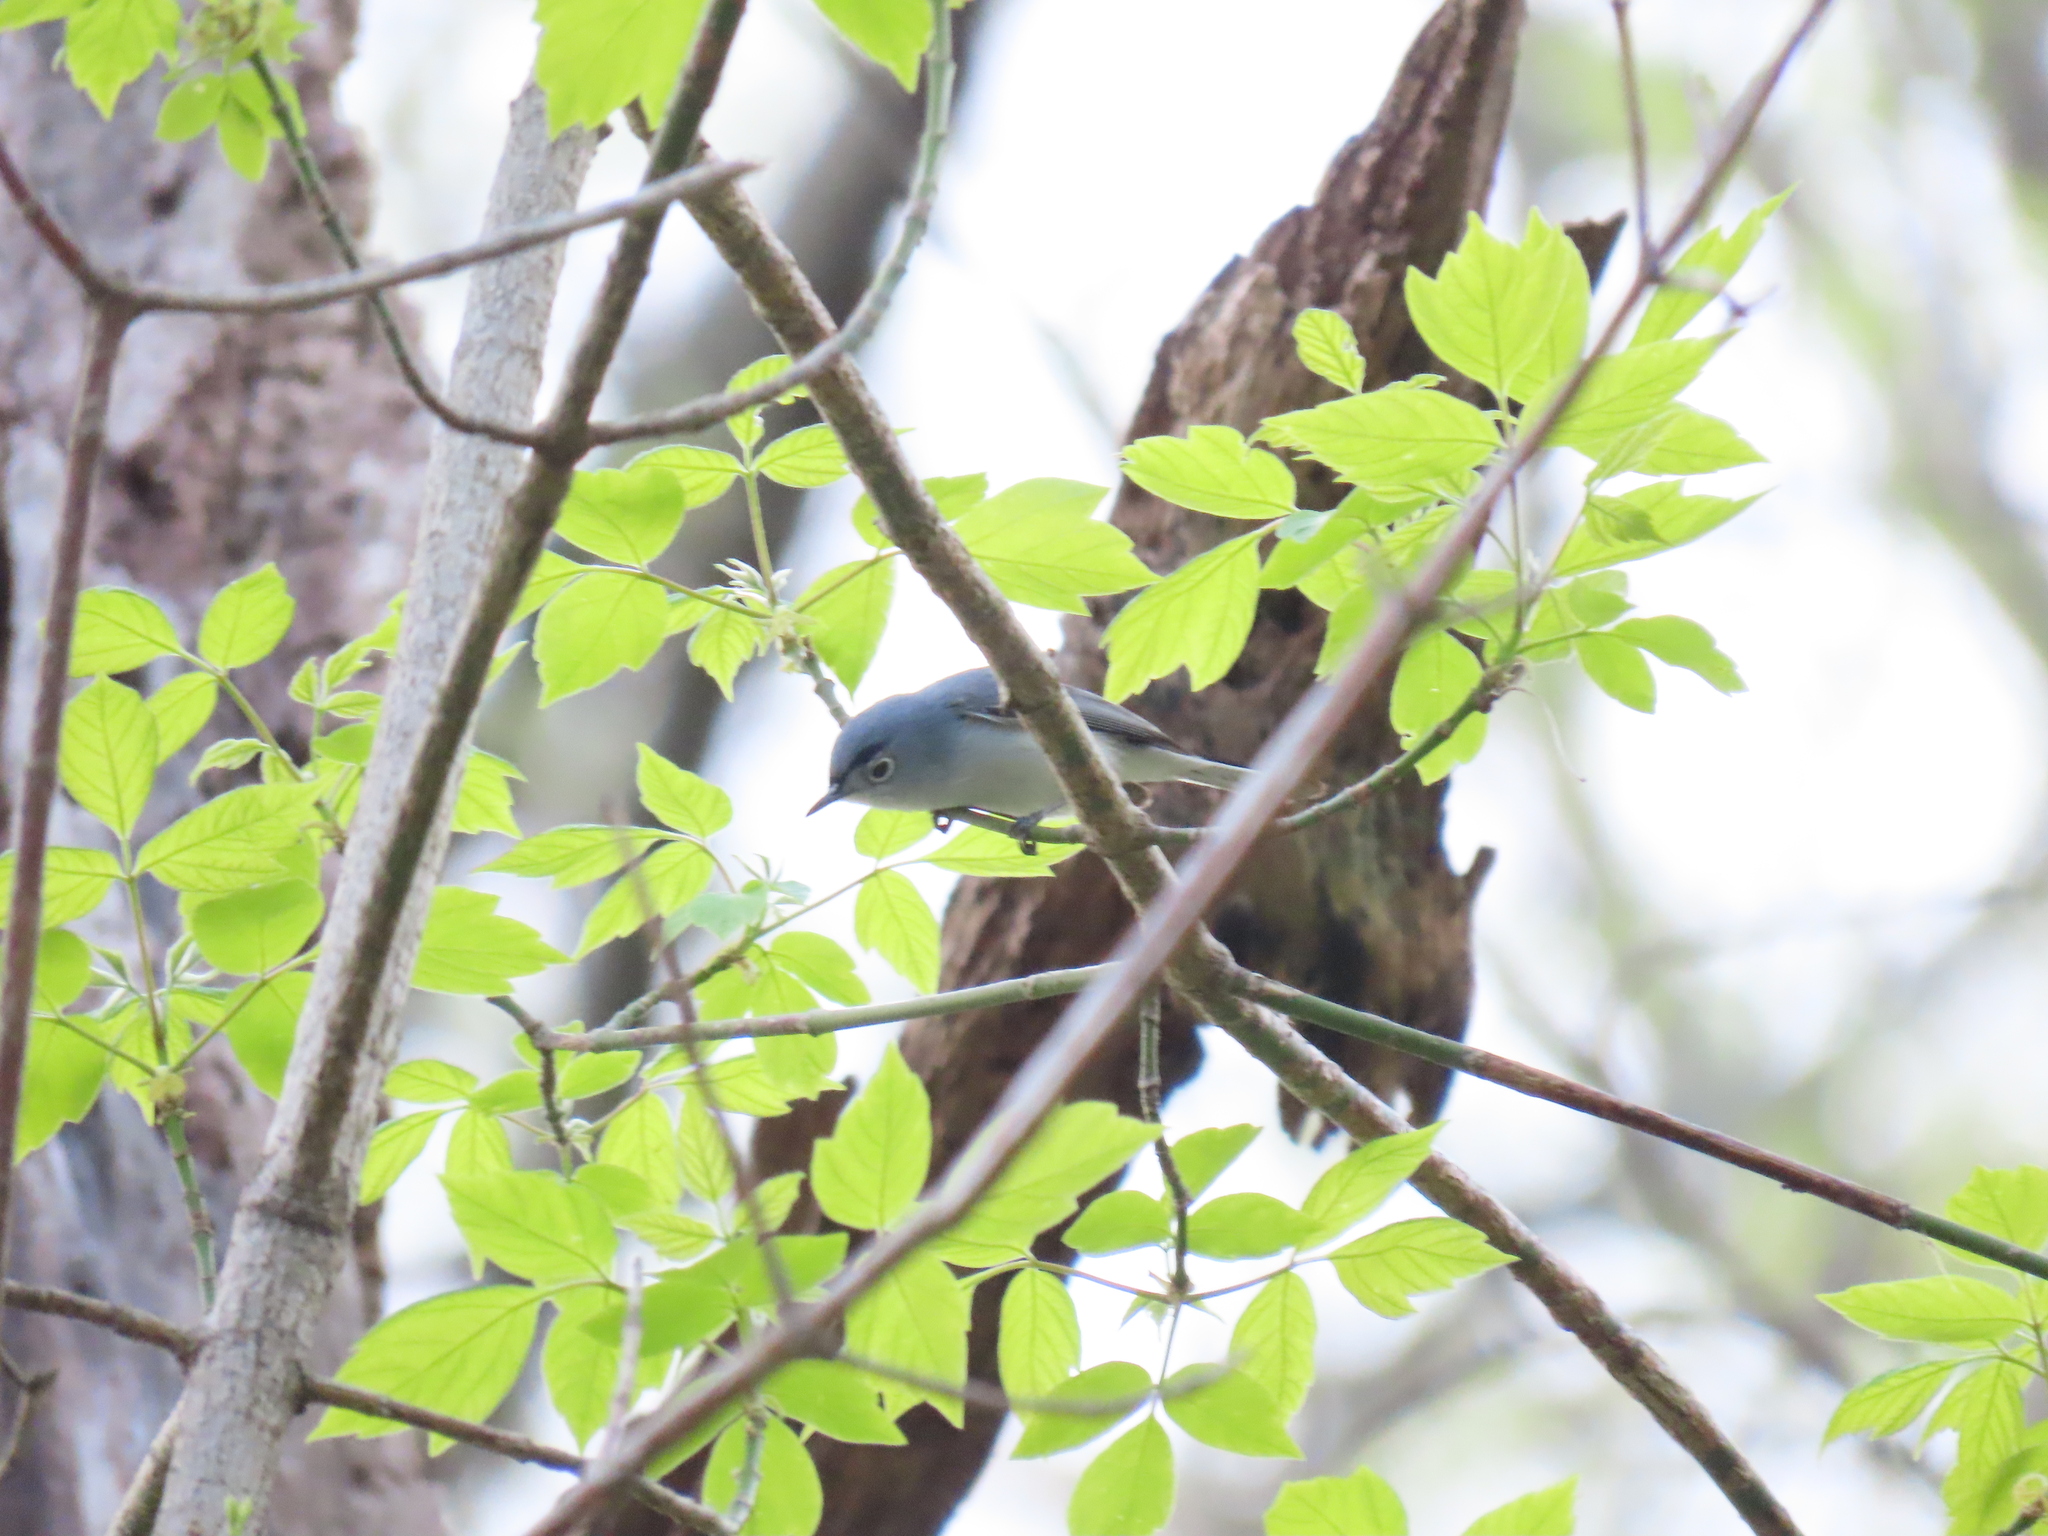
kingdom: Animalia
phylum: Chordata
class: Aves
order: Passeriformes
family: Polioptilidae
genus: Polioptila
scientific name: Polioptila caerulea
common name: Blue-gray gnatcatcher
